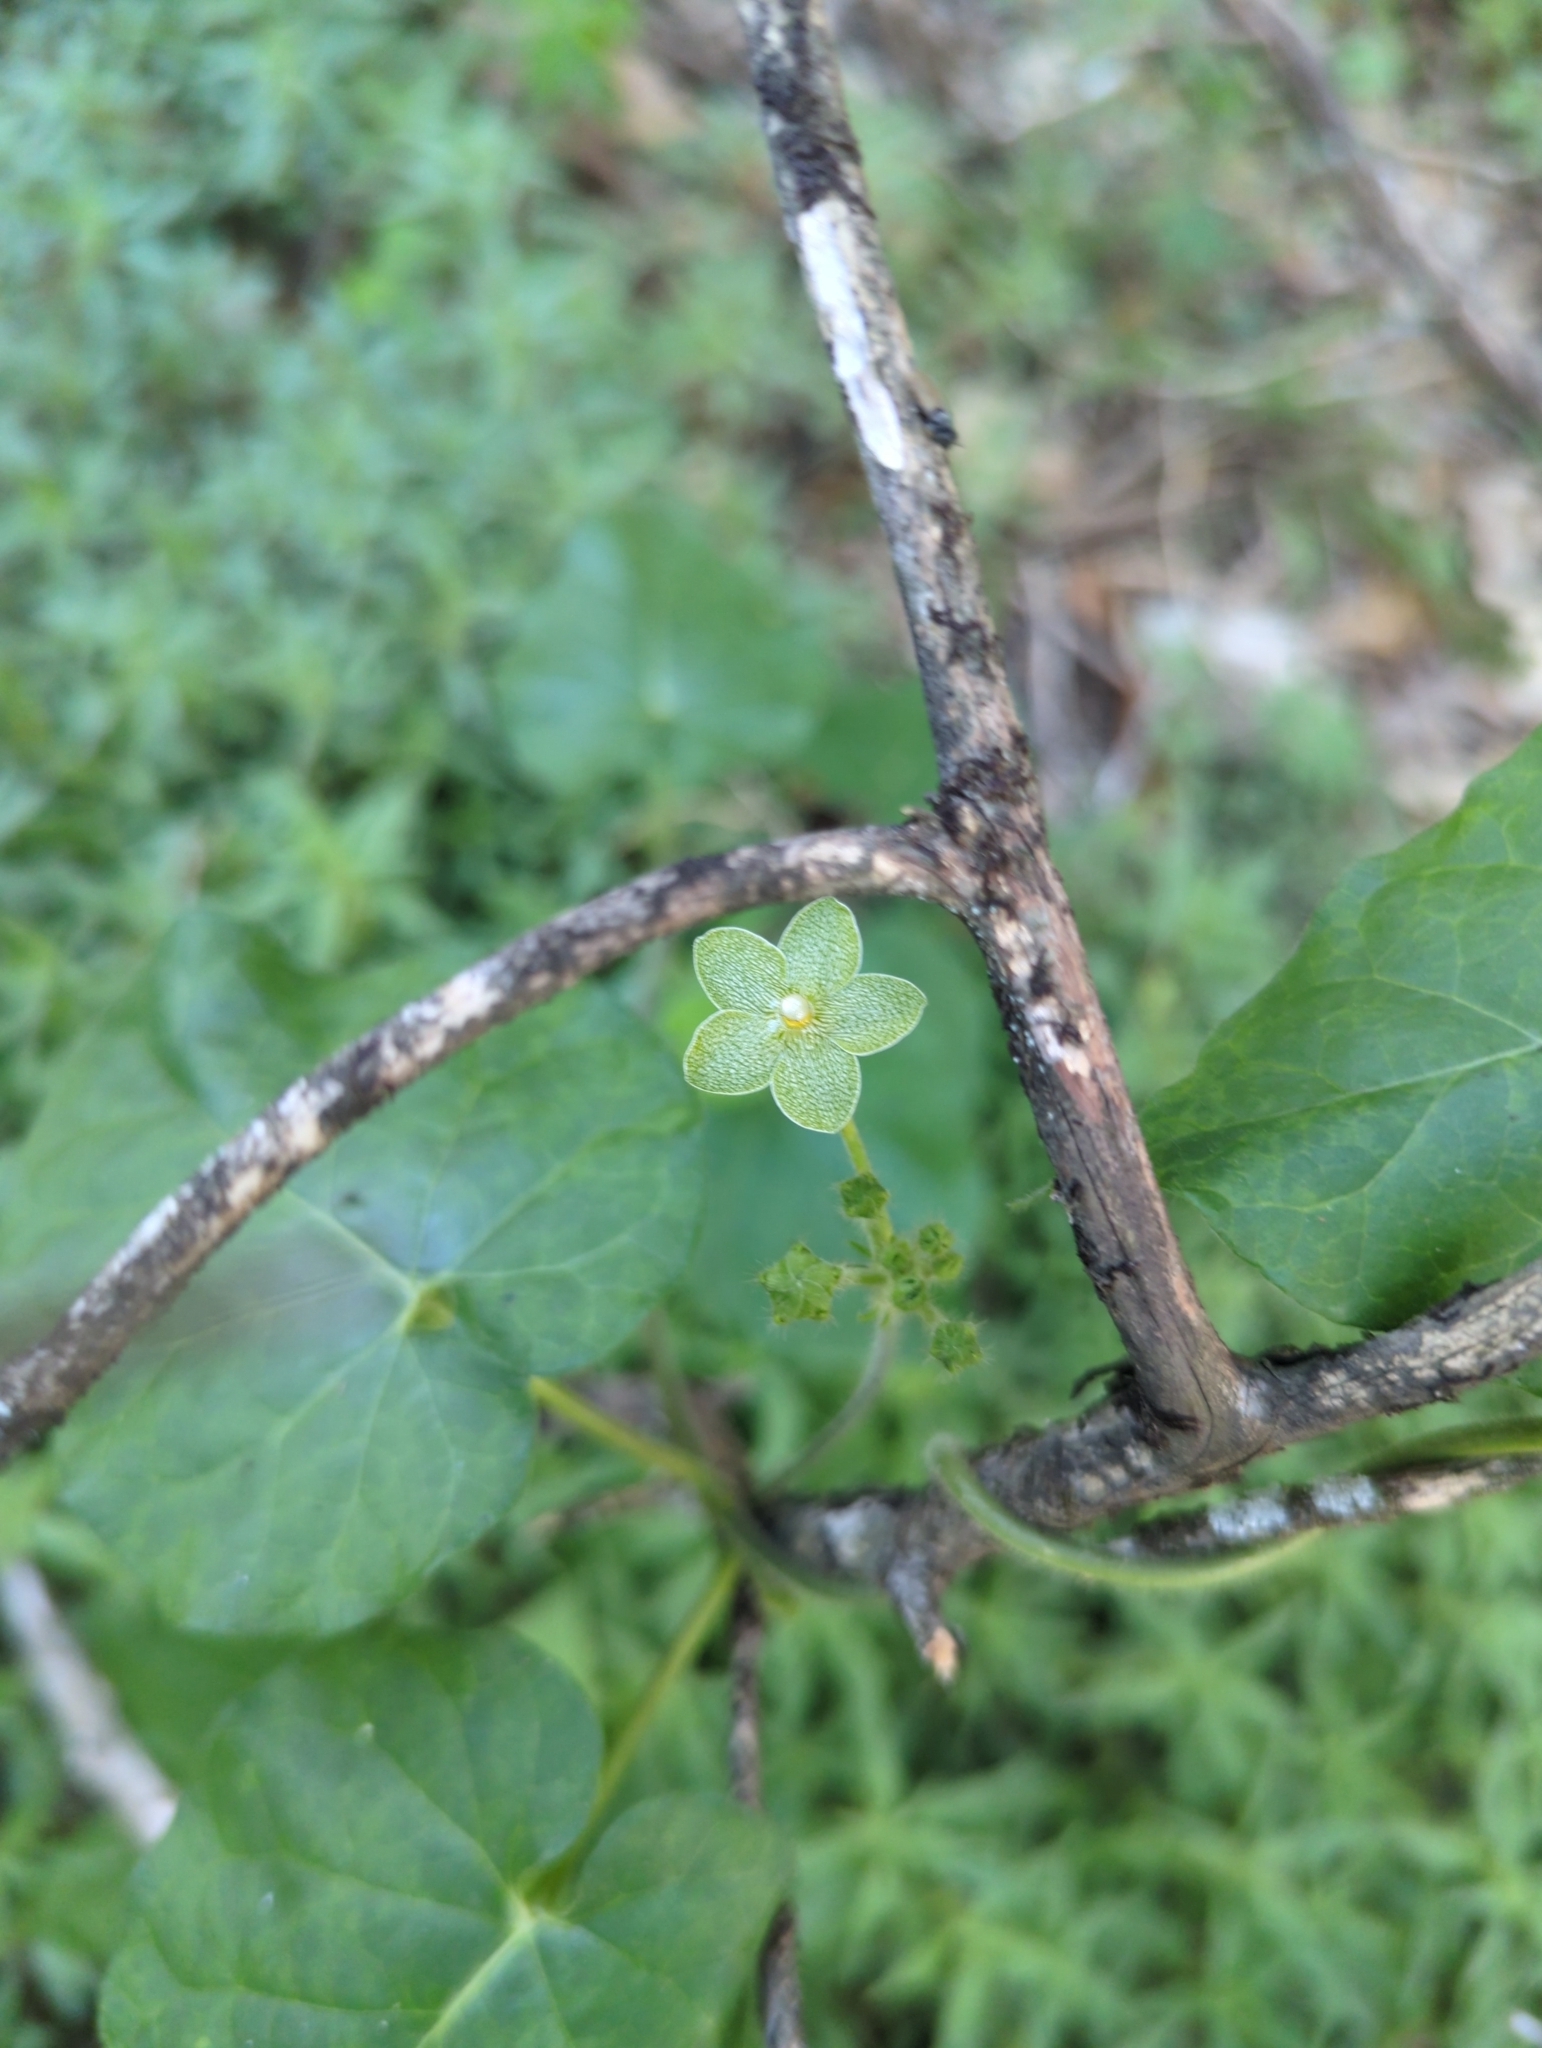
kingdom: Plantae
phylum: Tracheophyta
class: Magnoliopsida
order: Gentianales
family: Apocynaceae
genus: Dictyanthus
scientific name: Dictyanthus reticulatus
